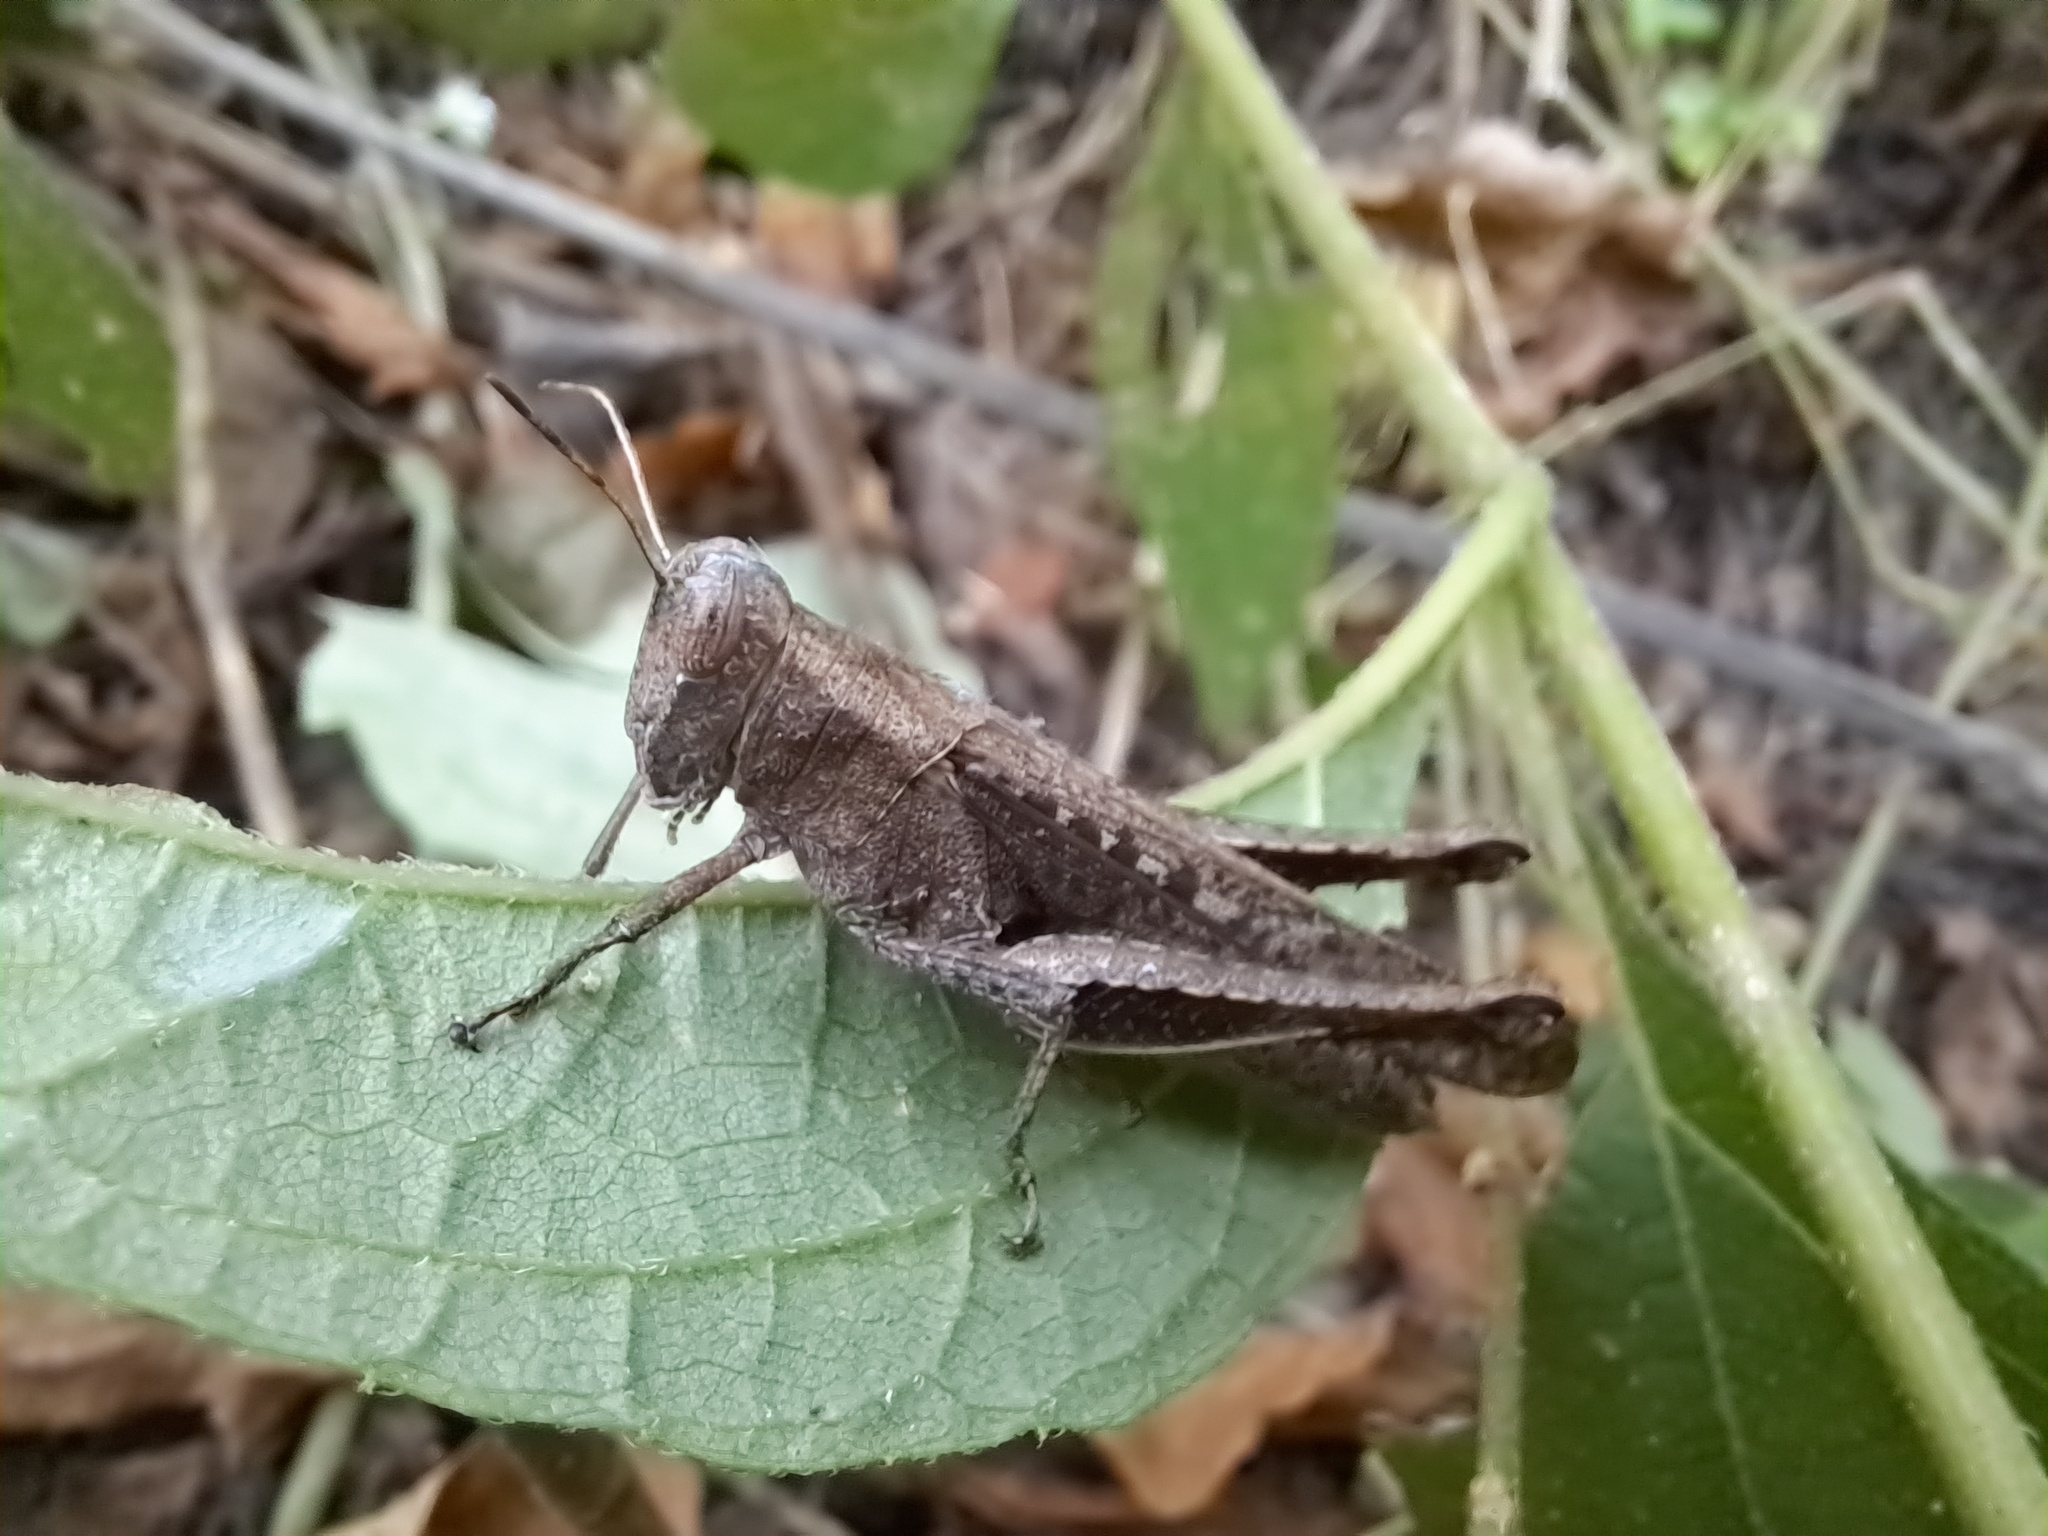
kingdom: Animalia
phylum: Arthropoda
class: Insecta
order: Orthoptera
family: Acrididae
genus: Abracris
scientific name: Abracris flavolineata
